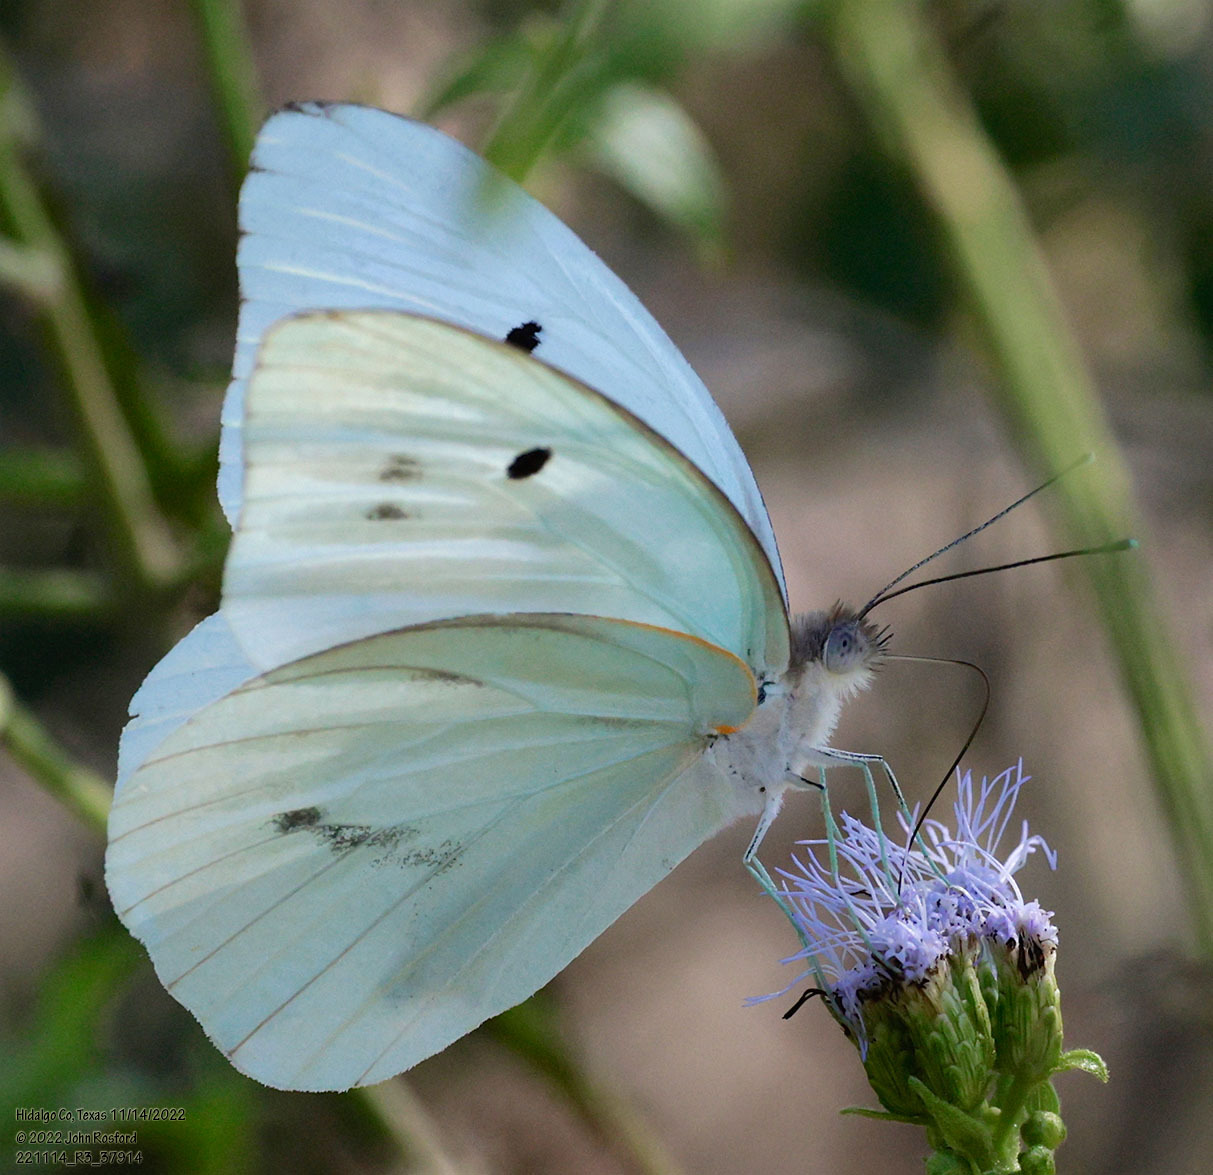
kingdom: Animalia
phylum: Arthropoda
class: Insecta
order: Lepidoptera
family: Pieridae
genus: Ganyra
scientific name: Ganyra josephina
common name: Giant white
